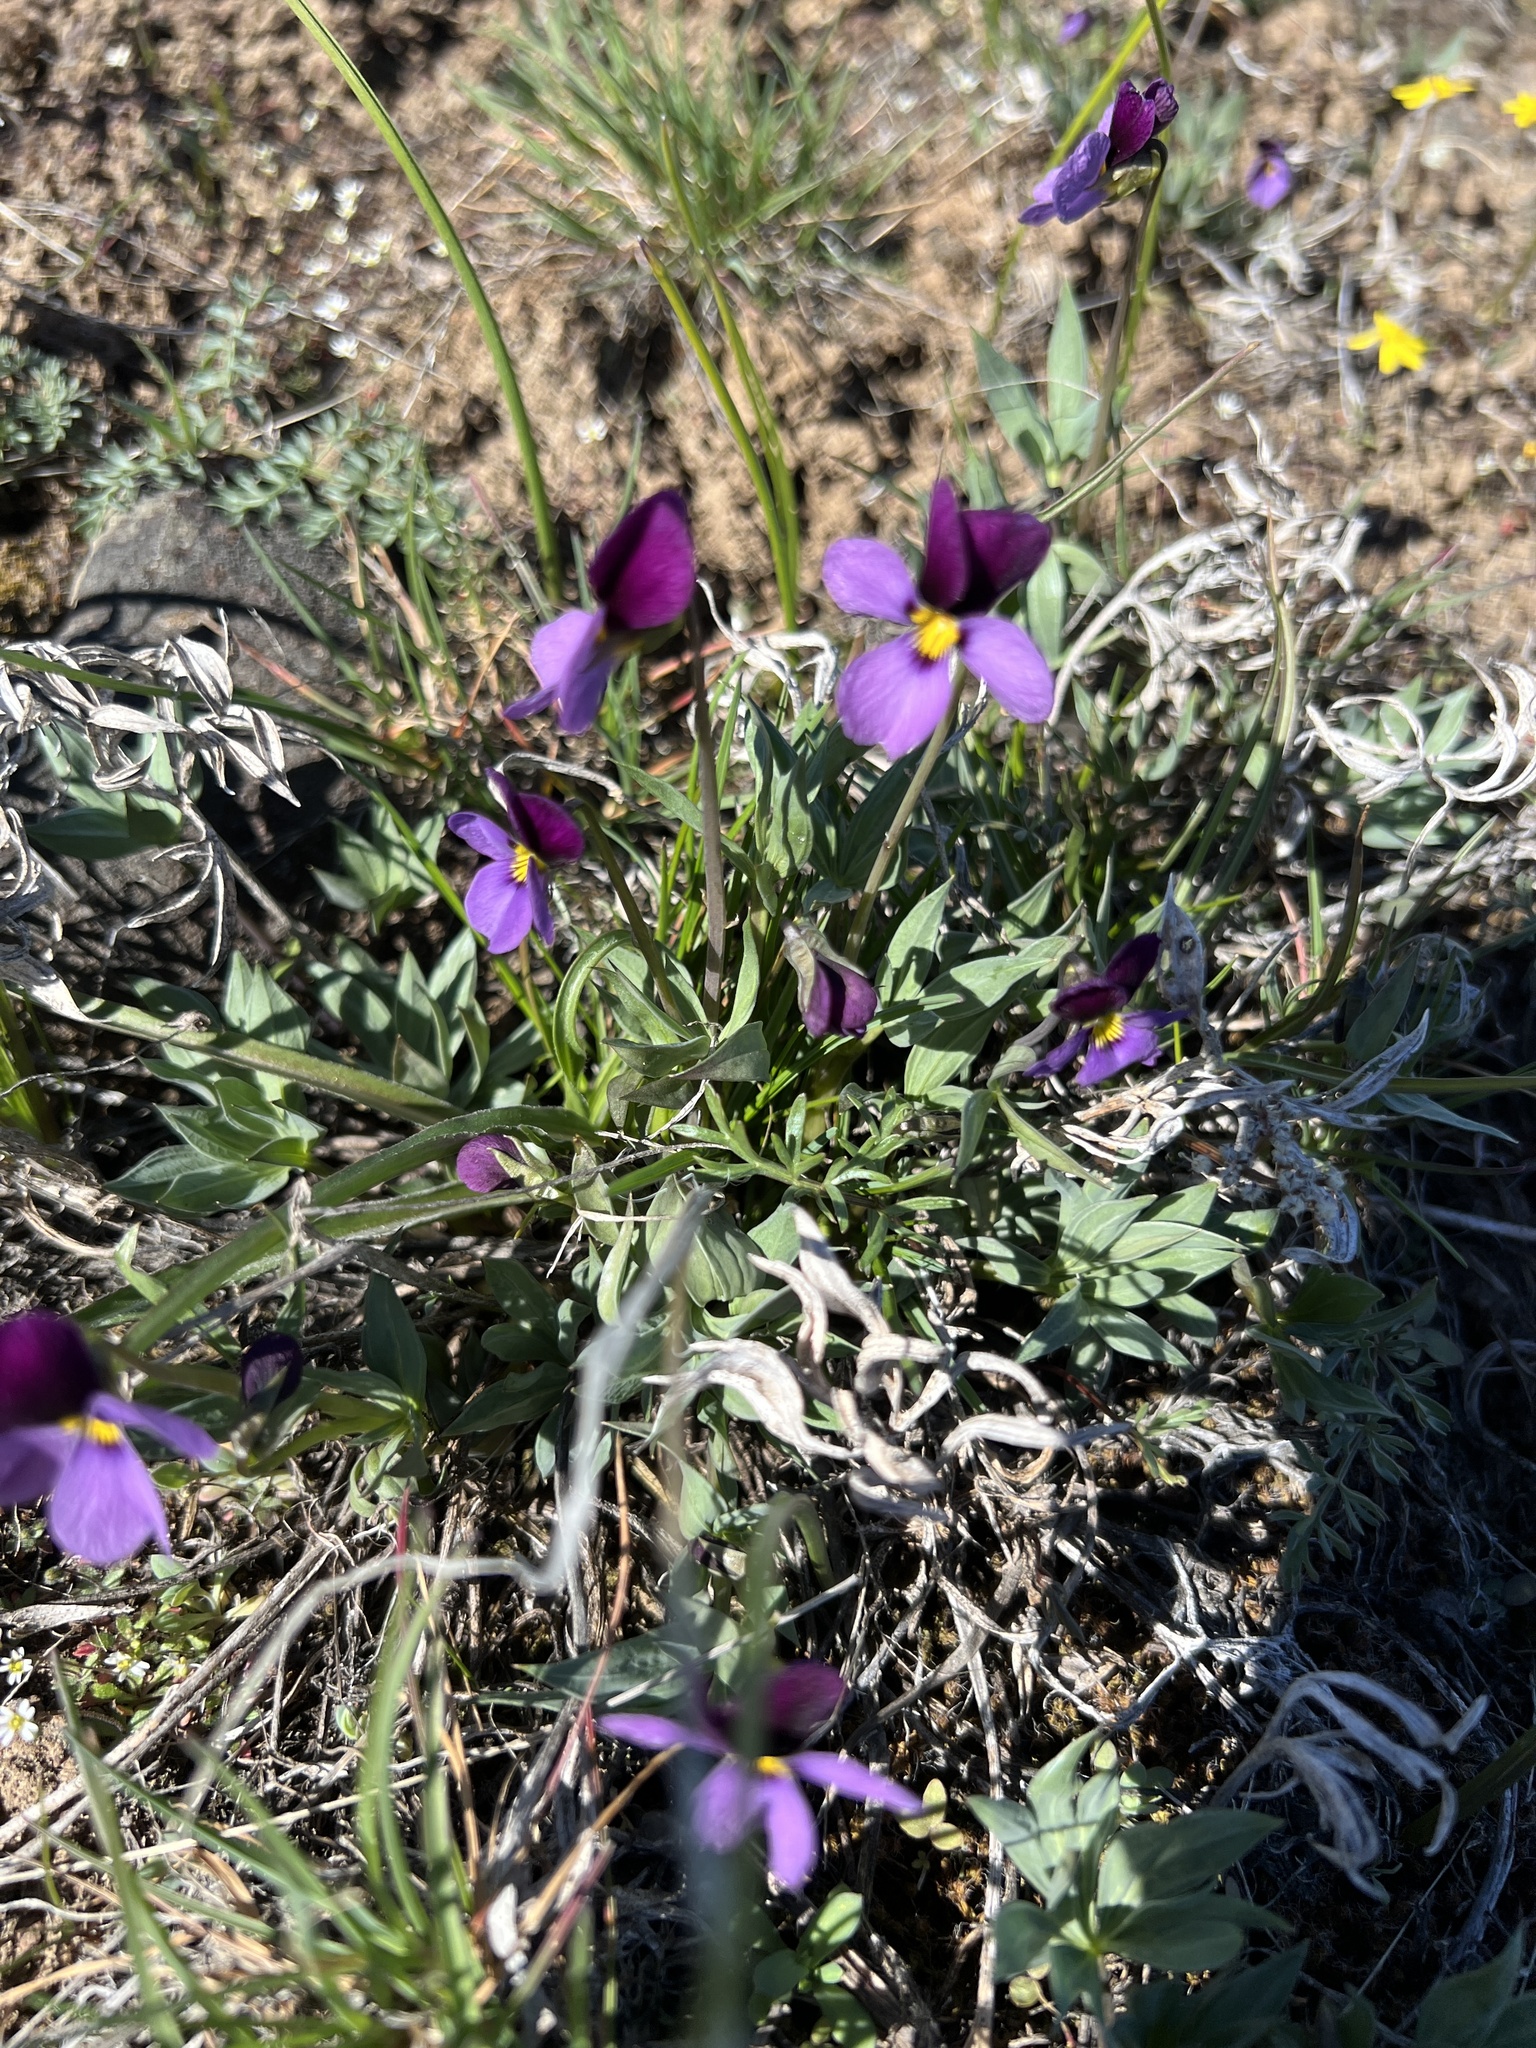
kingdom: Plantae
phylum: Tracheophyta
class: Magnoliopsida
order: Malpighiales
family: Violaceae
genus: Viola
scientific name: Viola trinervata
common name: Sagebrush violet
